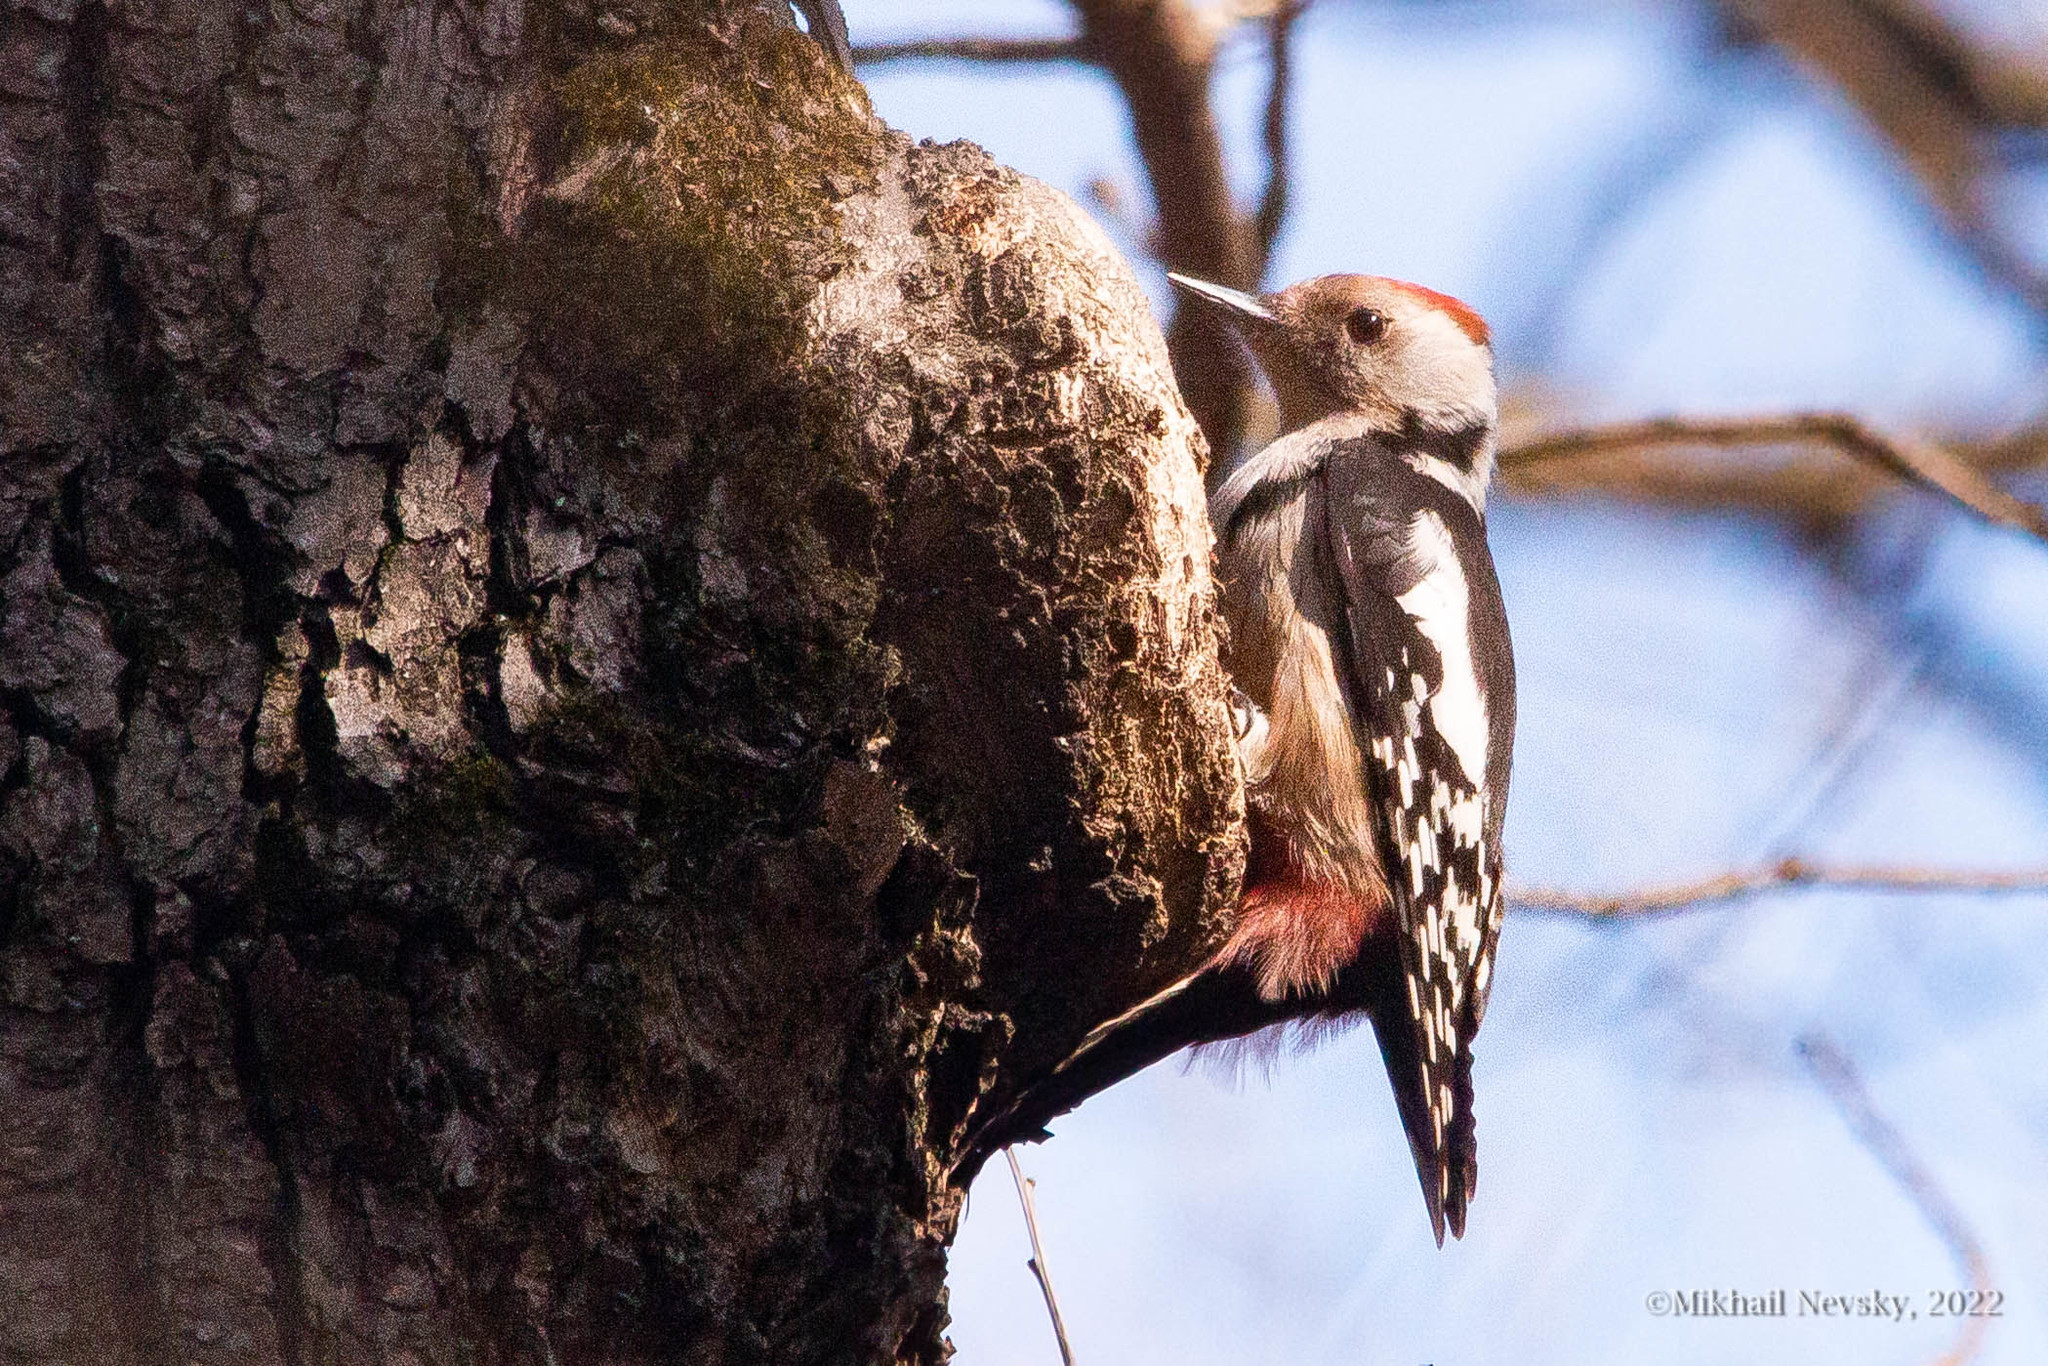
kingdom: Animalia
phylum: Chordata
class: Aves
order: Piciformes
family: Picidae
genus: Dendrocoptes
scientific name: Dendrocoptes medius
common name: Middle spotted woodpecker
